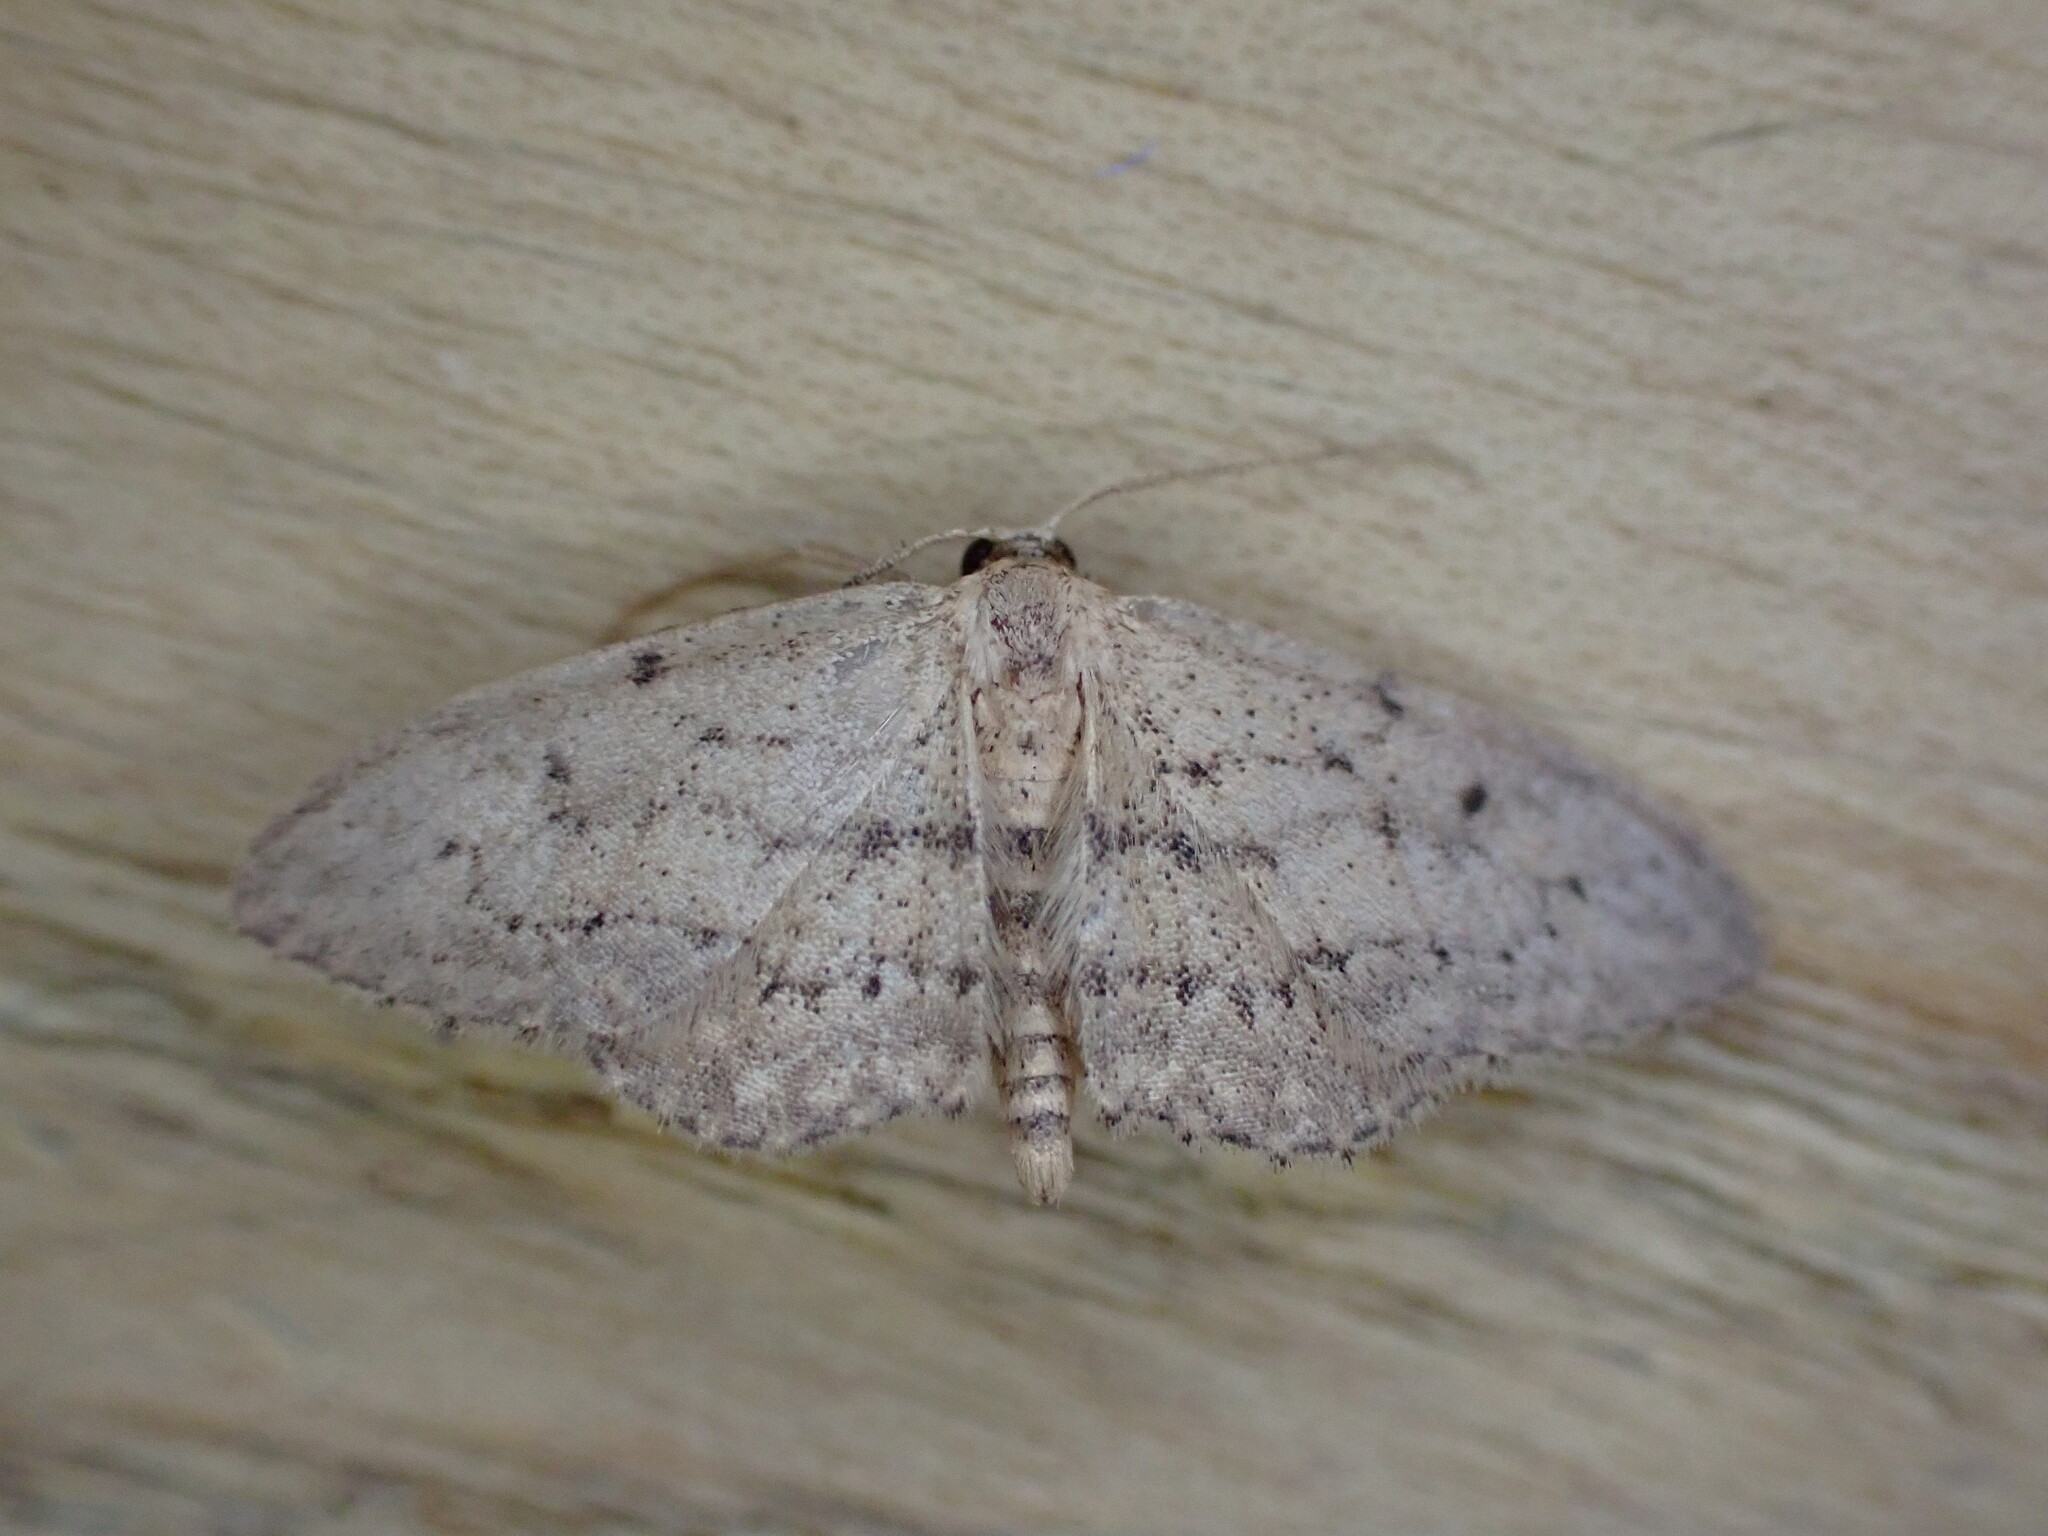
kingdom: Animalia
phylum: Arthropoda
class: Insecta
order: Lepidoptera
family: Geometridae
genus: Idaea
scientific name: Idaea seriata
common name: Small dusty wave
